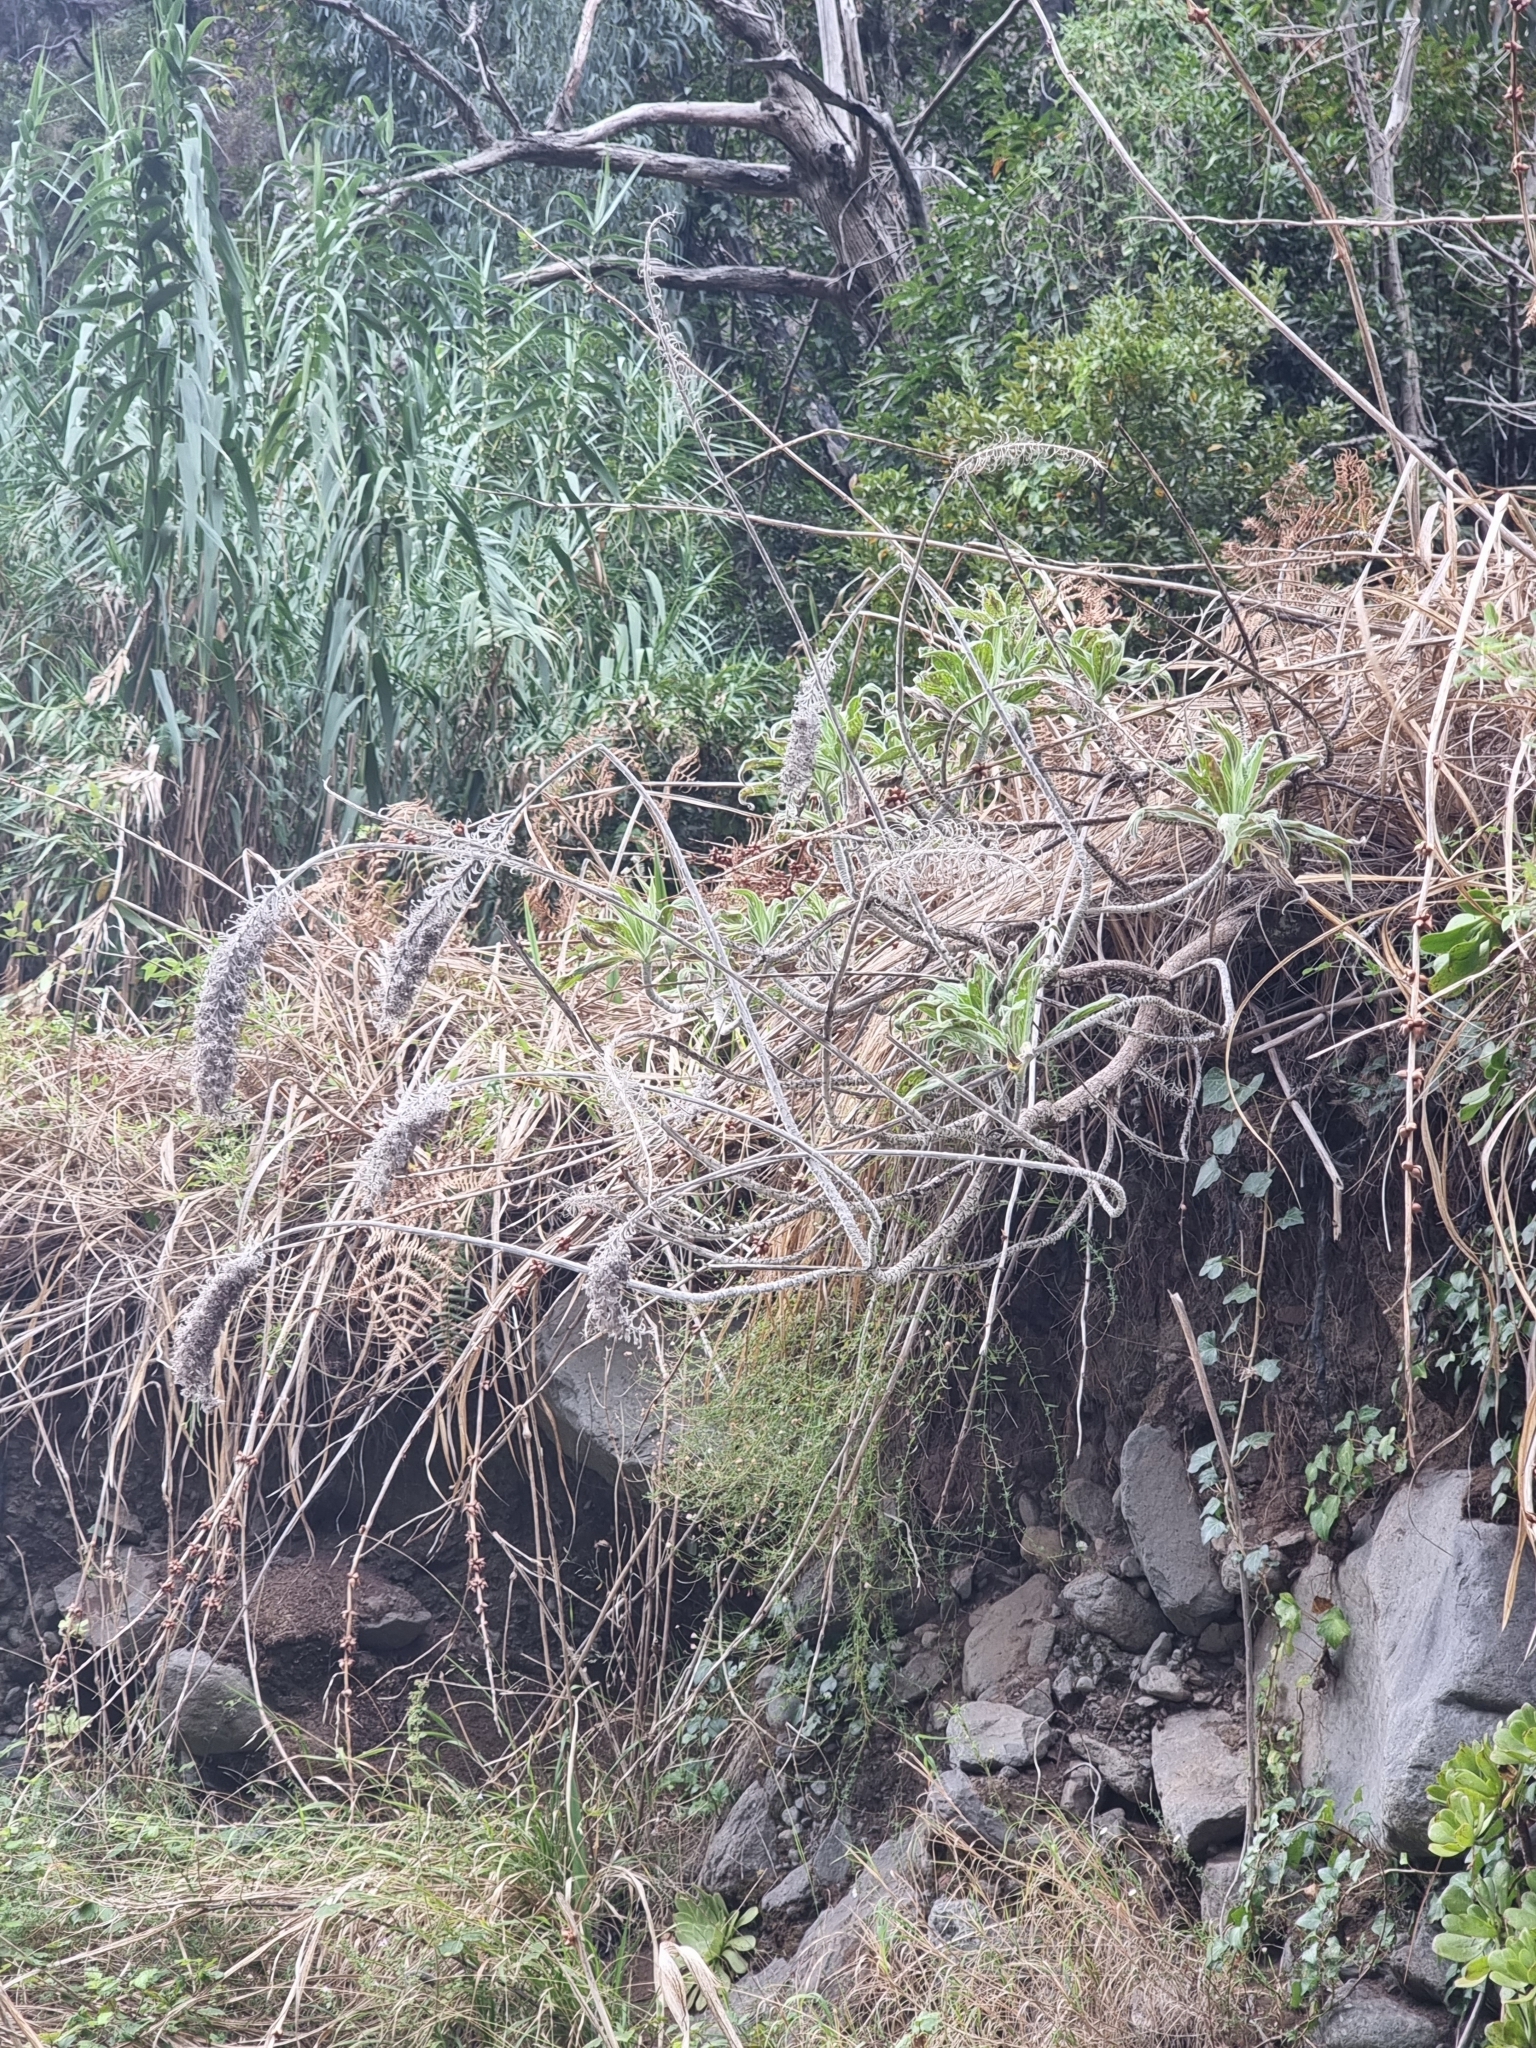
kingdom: Plantae
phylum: Tracheophyta
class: Magnoliopsida
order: Boraginales
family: Boraginaceae
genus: Echium
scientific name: Echium nervosum
